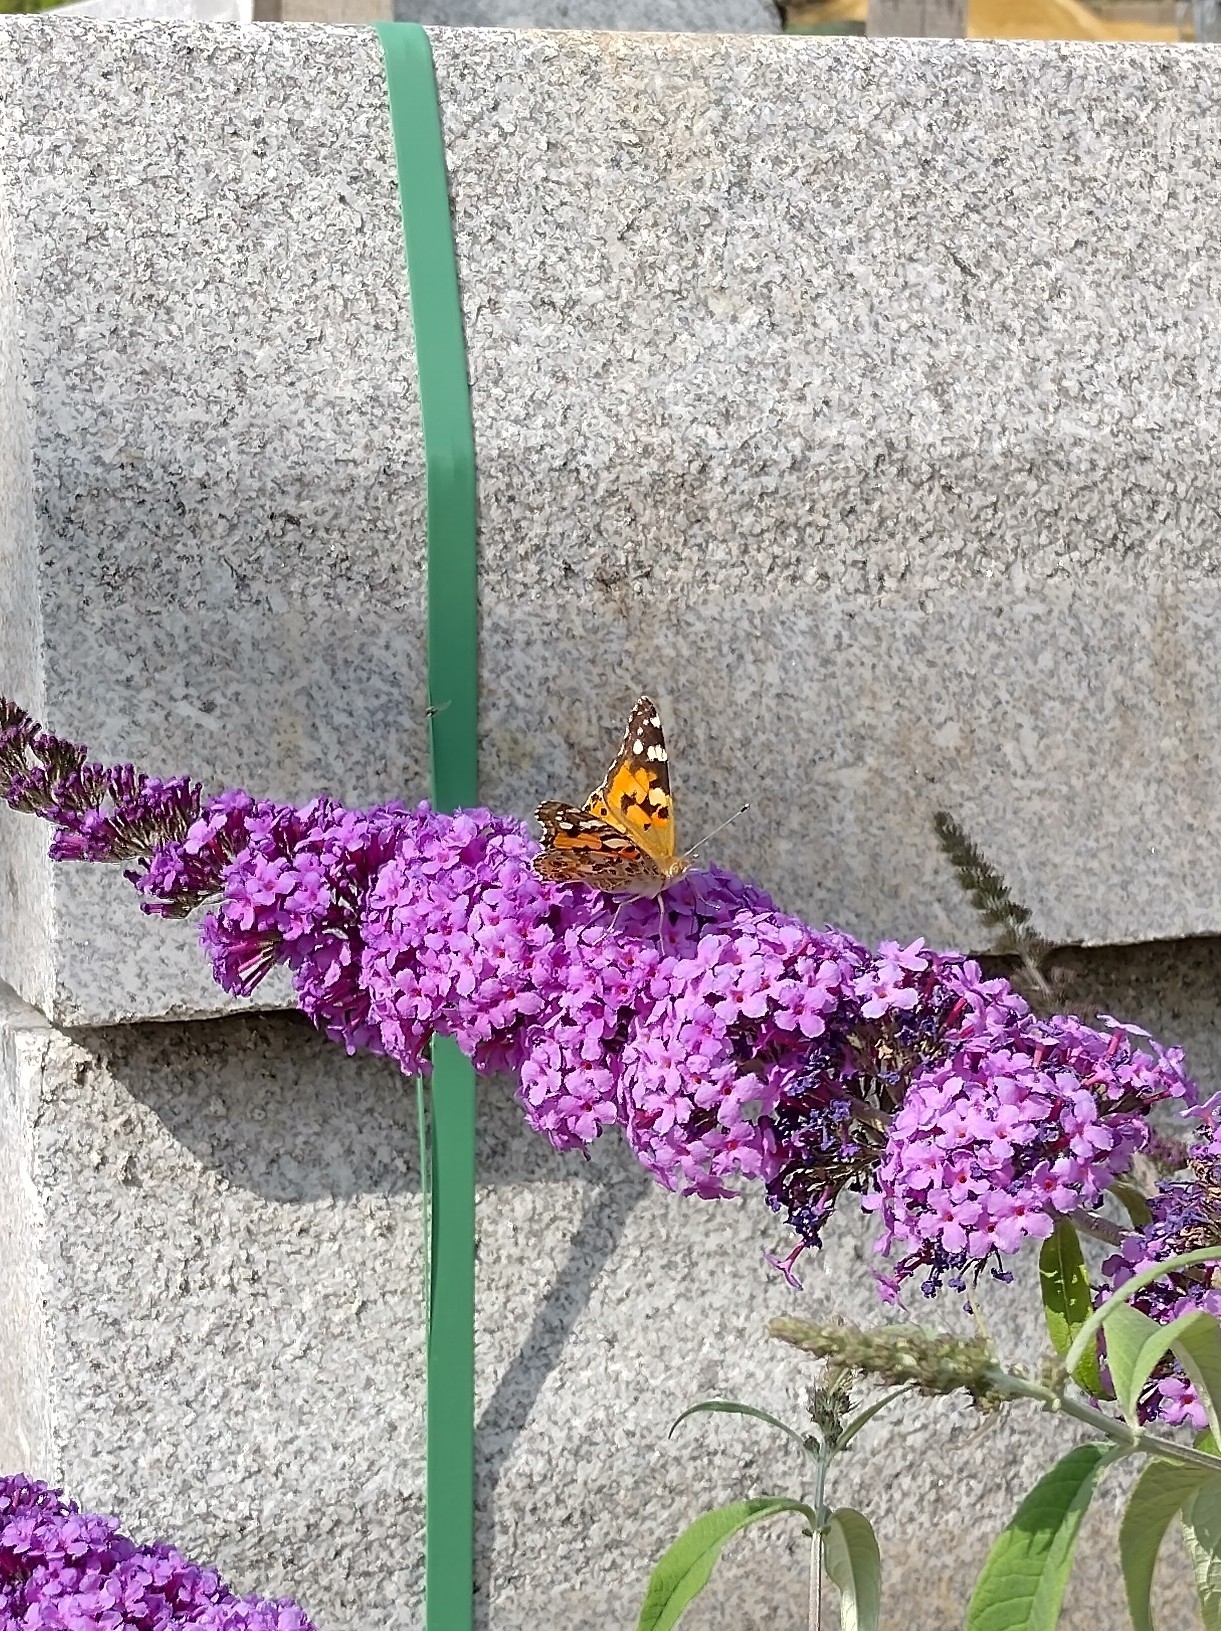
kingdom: Animalia
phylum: Arthropoda
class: Insecta
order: Lepidoptera
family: Nymphalidae
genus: Vanessa
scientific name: Vanessa cardui
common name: Painted lady
